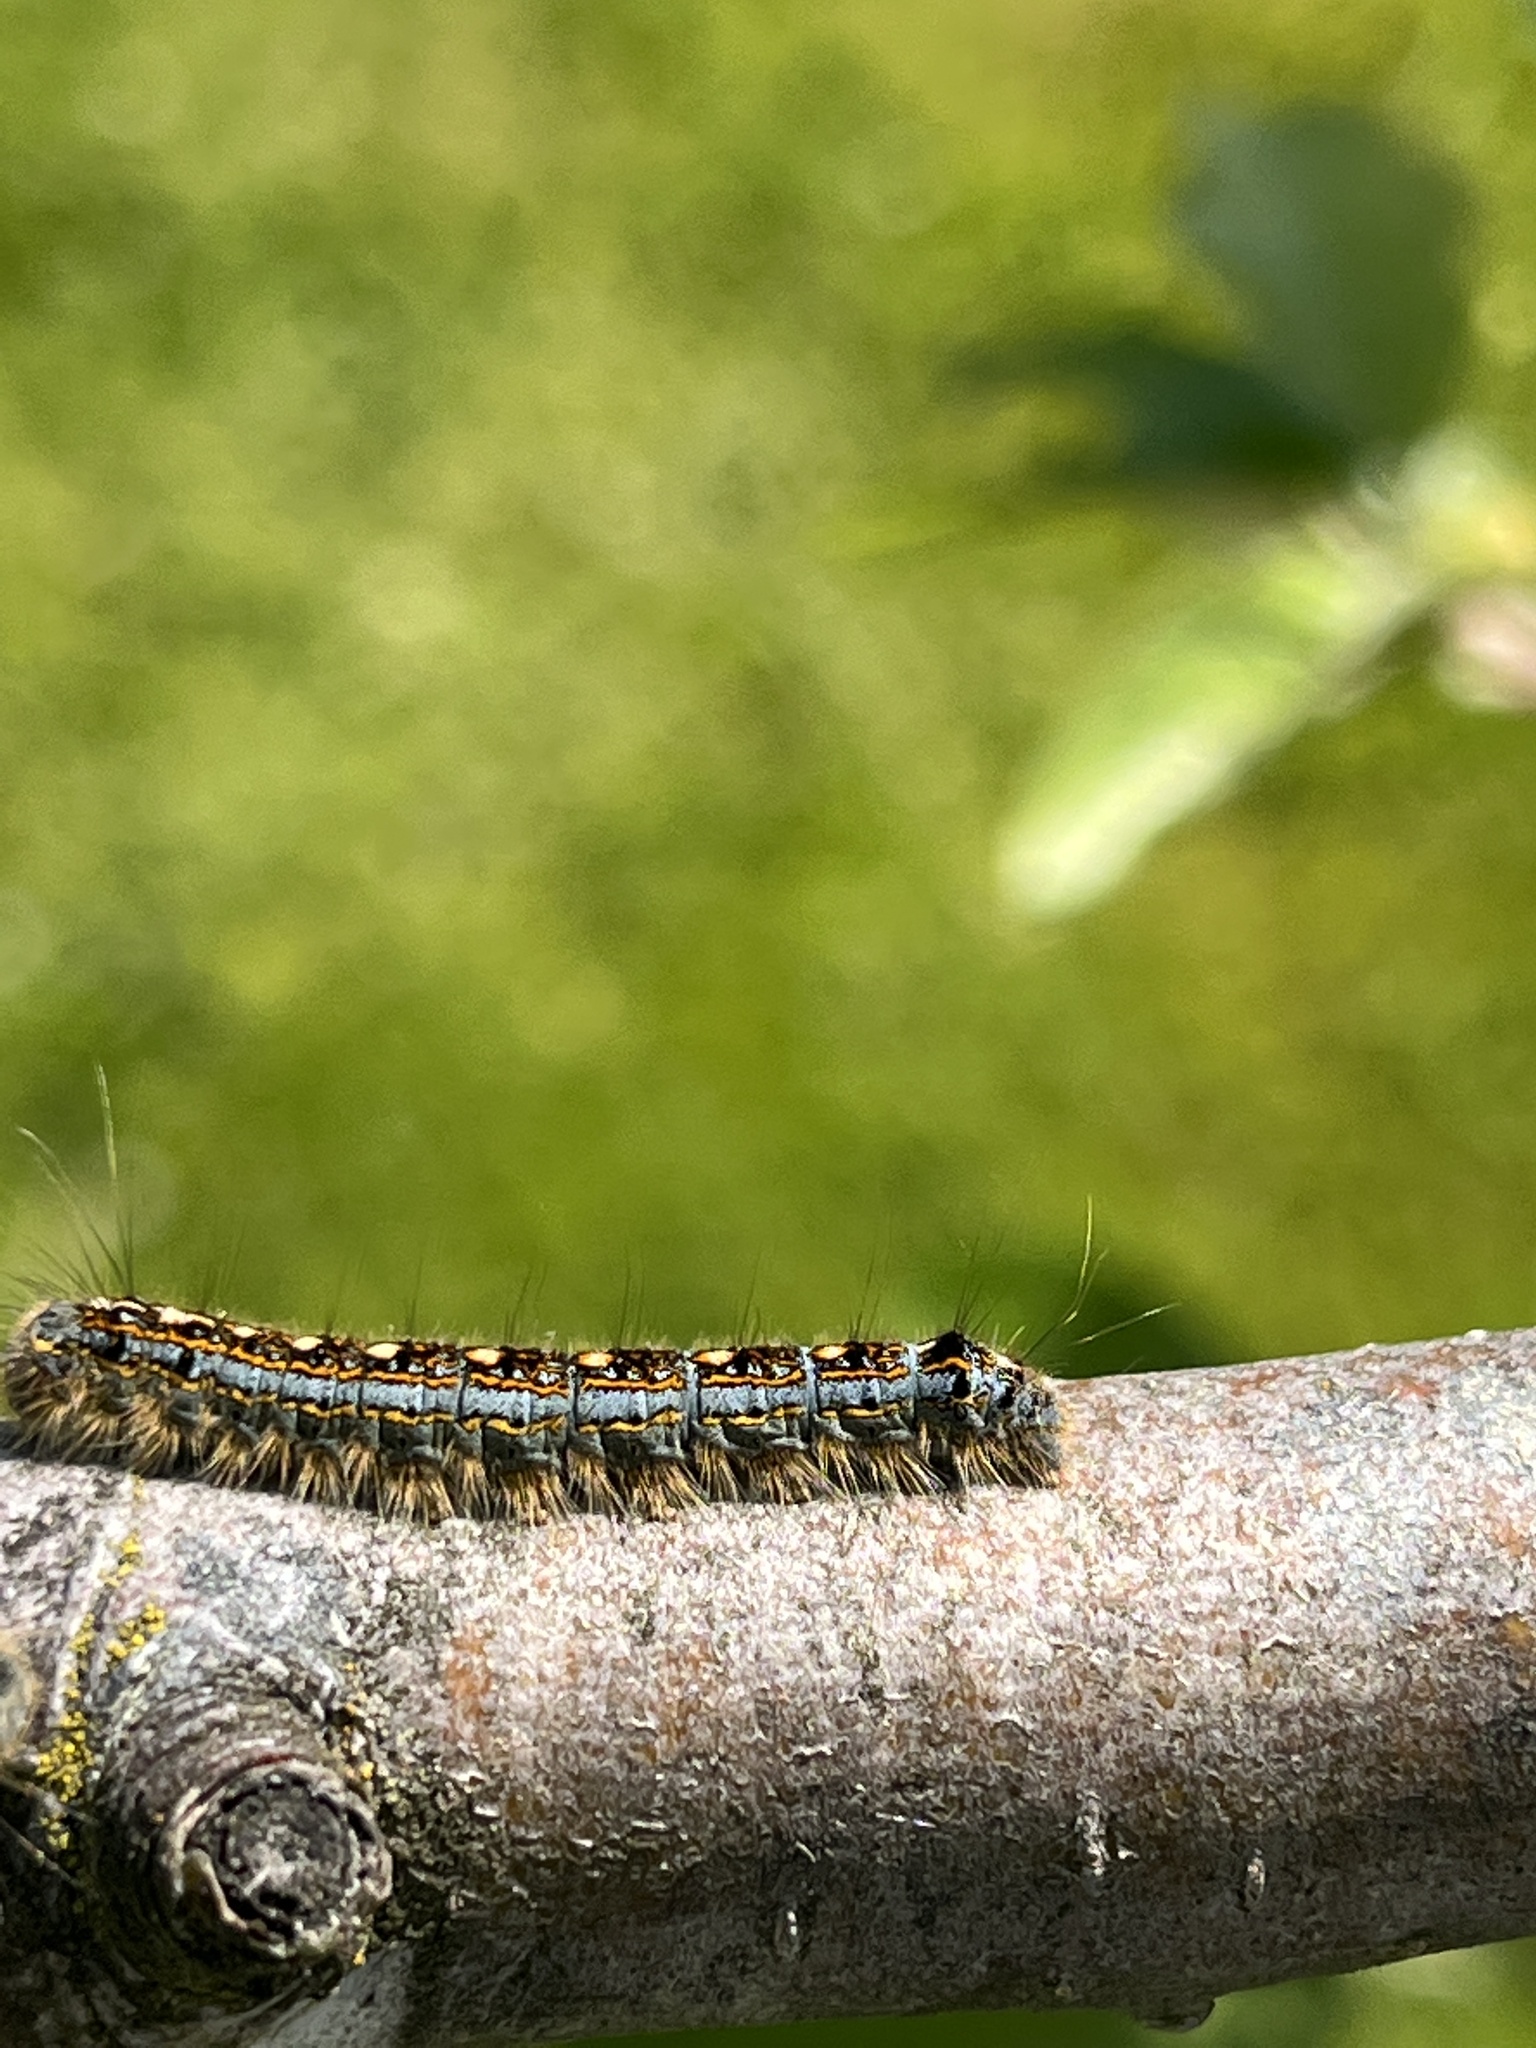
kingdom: Animalia
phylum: Arthropoda
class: Insecta
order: Lepidoptera
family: Lasiocampidae
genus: Malacosoma
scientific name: Malacosoma disstria
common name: Forest tent caterpillar
